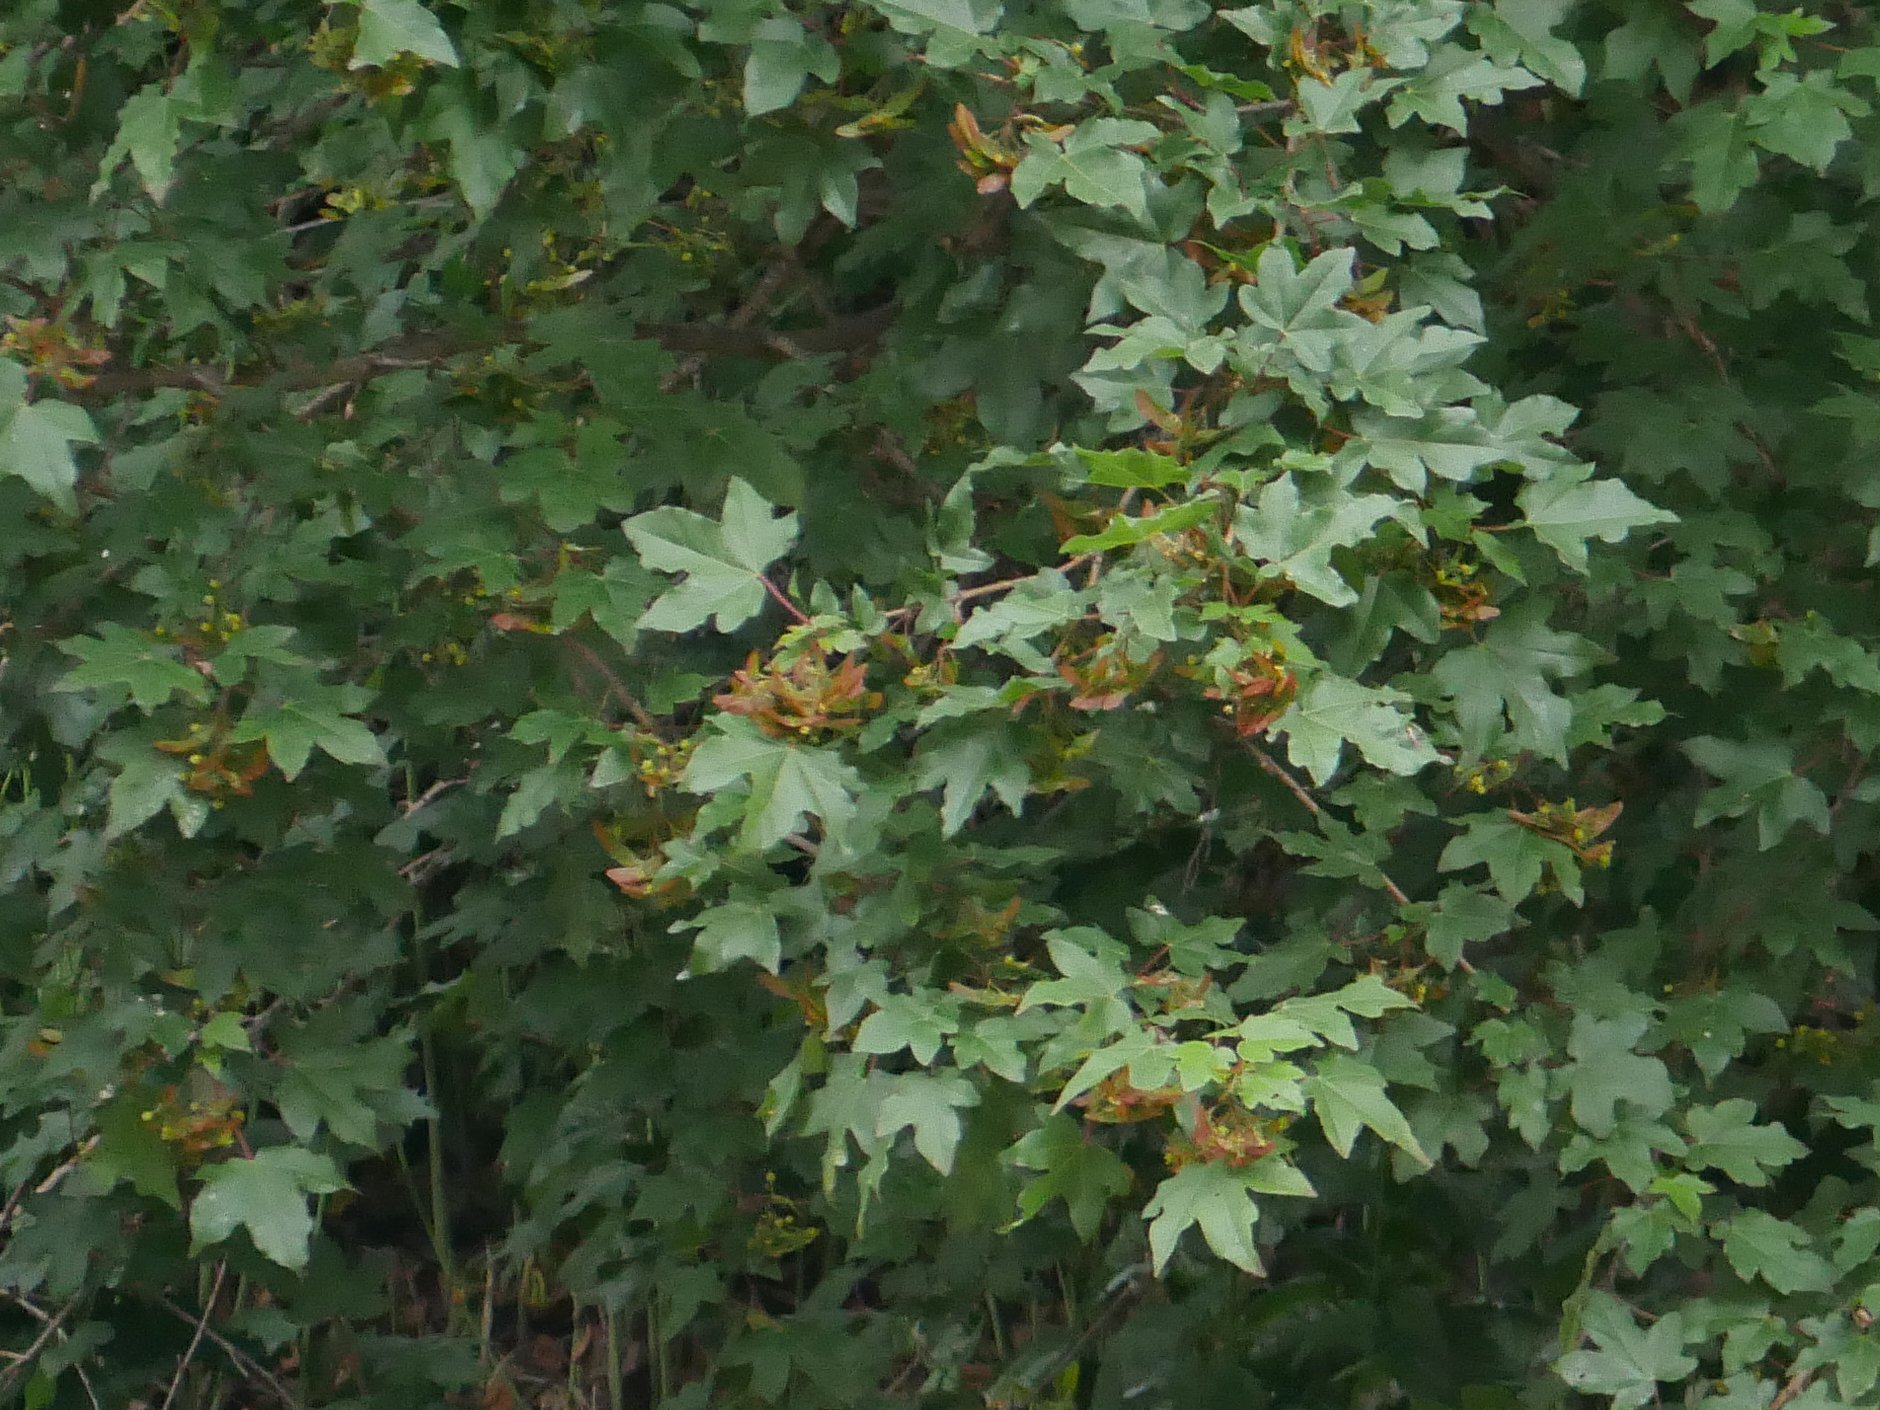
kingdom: Plantae
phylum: Tracheophyta
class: Magnoliopsida
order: Sapindales
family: Sapindaceae
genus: Acer
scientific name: Acer campestre
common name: Field maple
